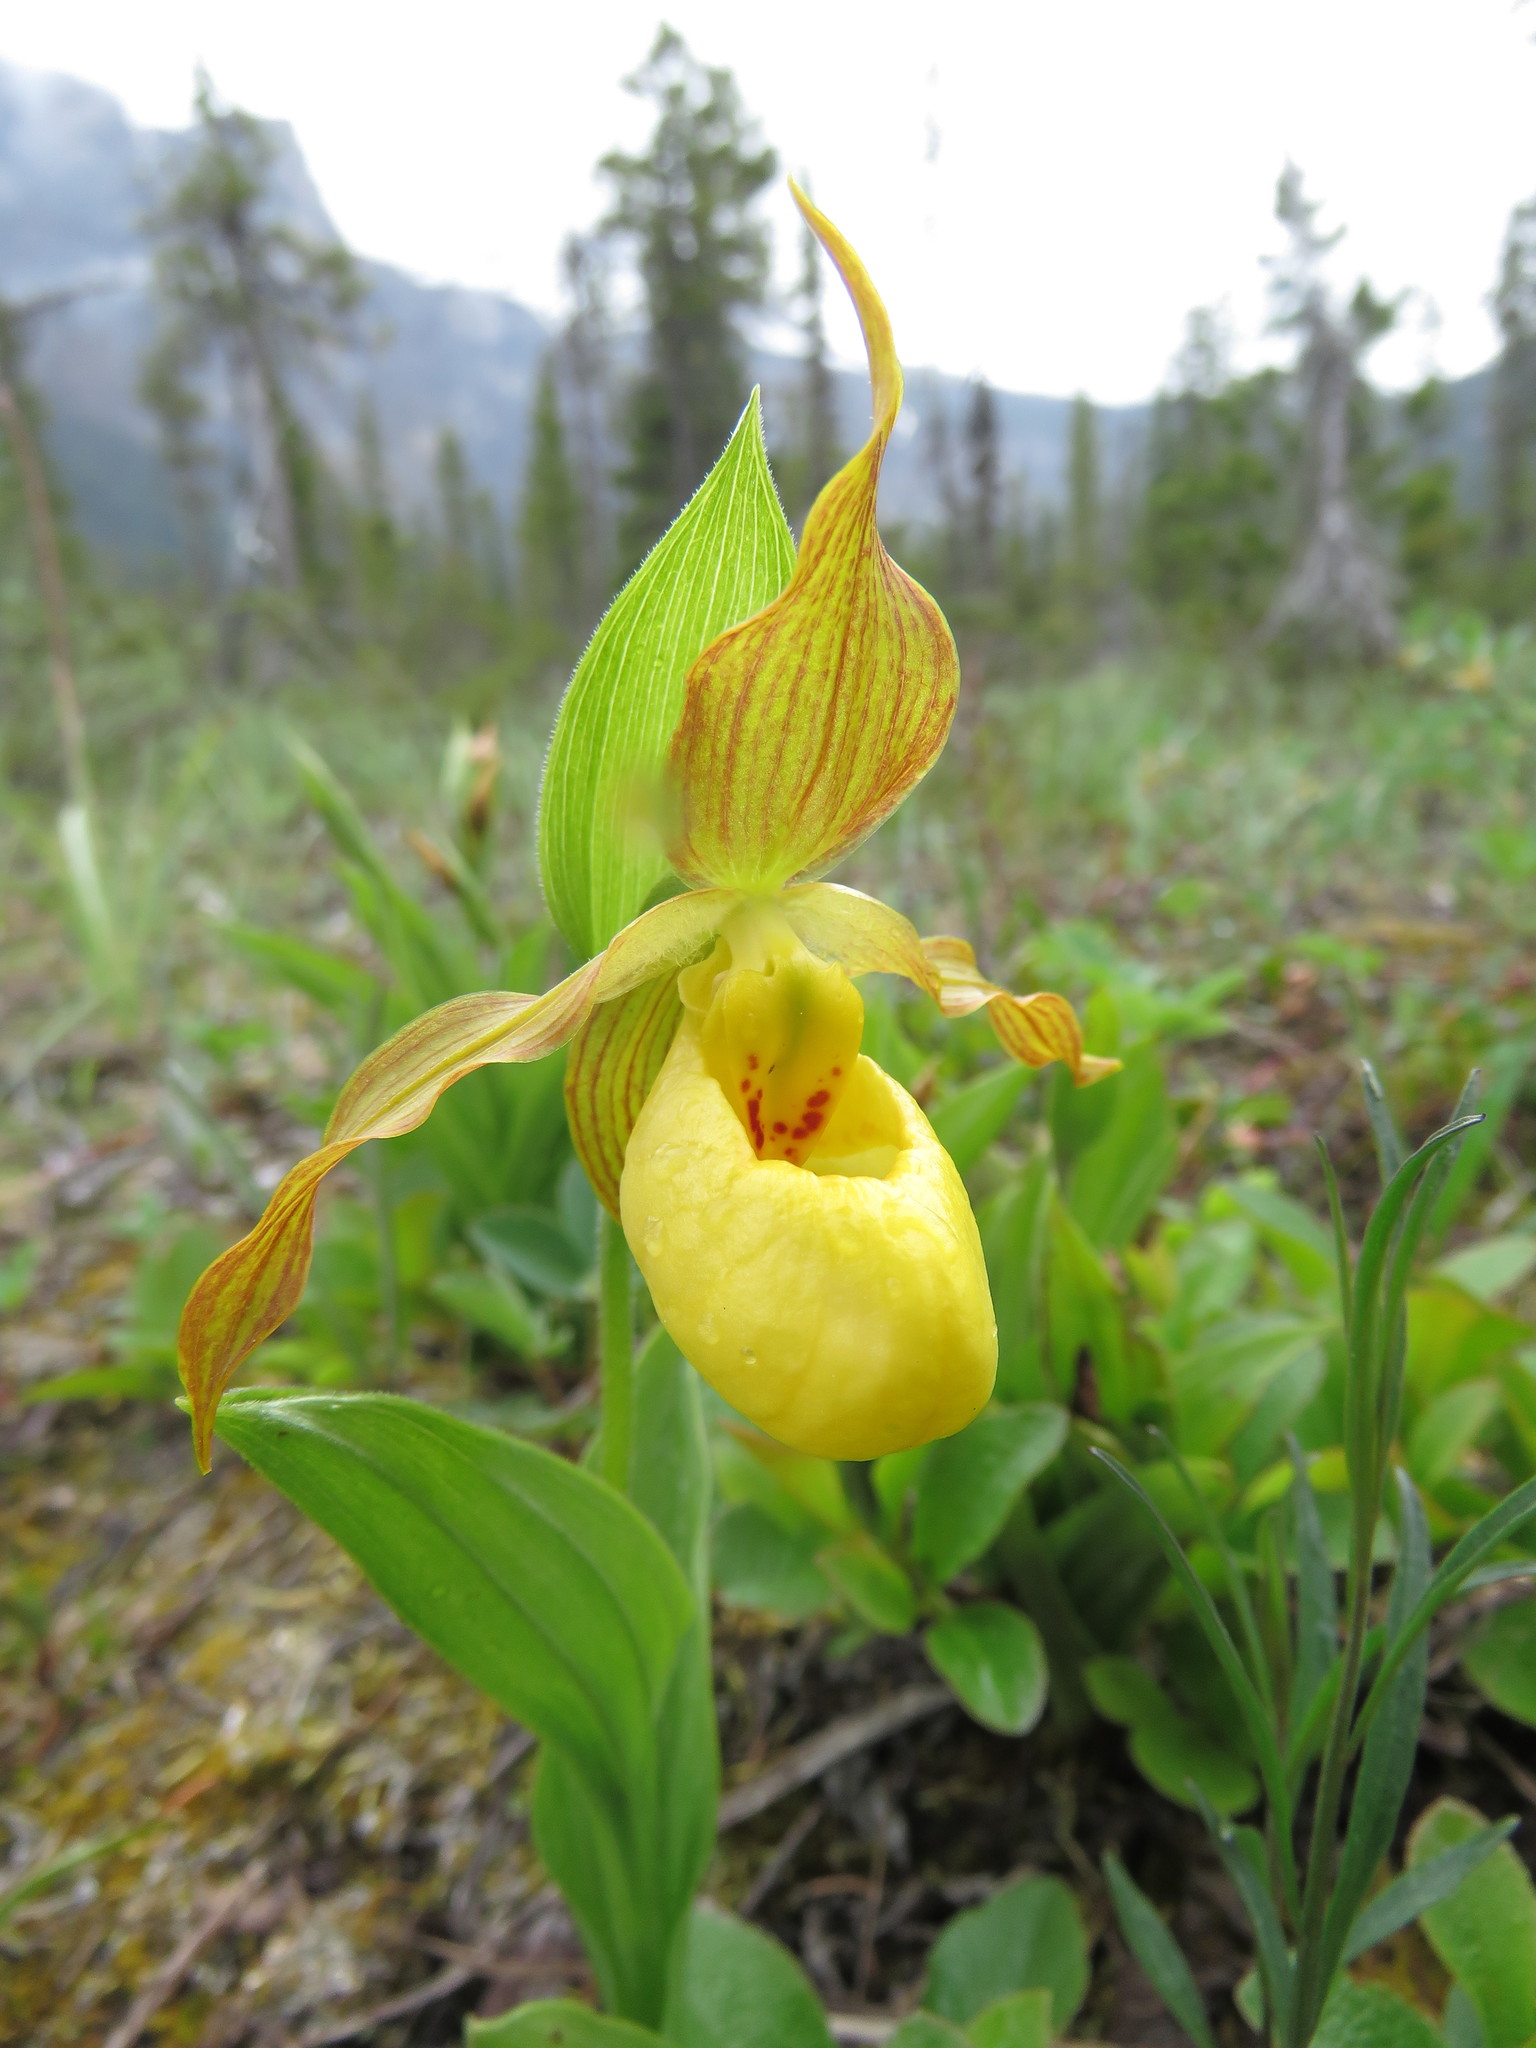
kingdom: Plantae
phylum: Tracheophyta
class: Liliopsida
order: Asparagales
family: Orchidaceae
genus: Cypripedium
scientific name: Cypripedium parviflorum
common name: American yellow lady's-slipper
